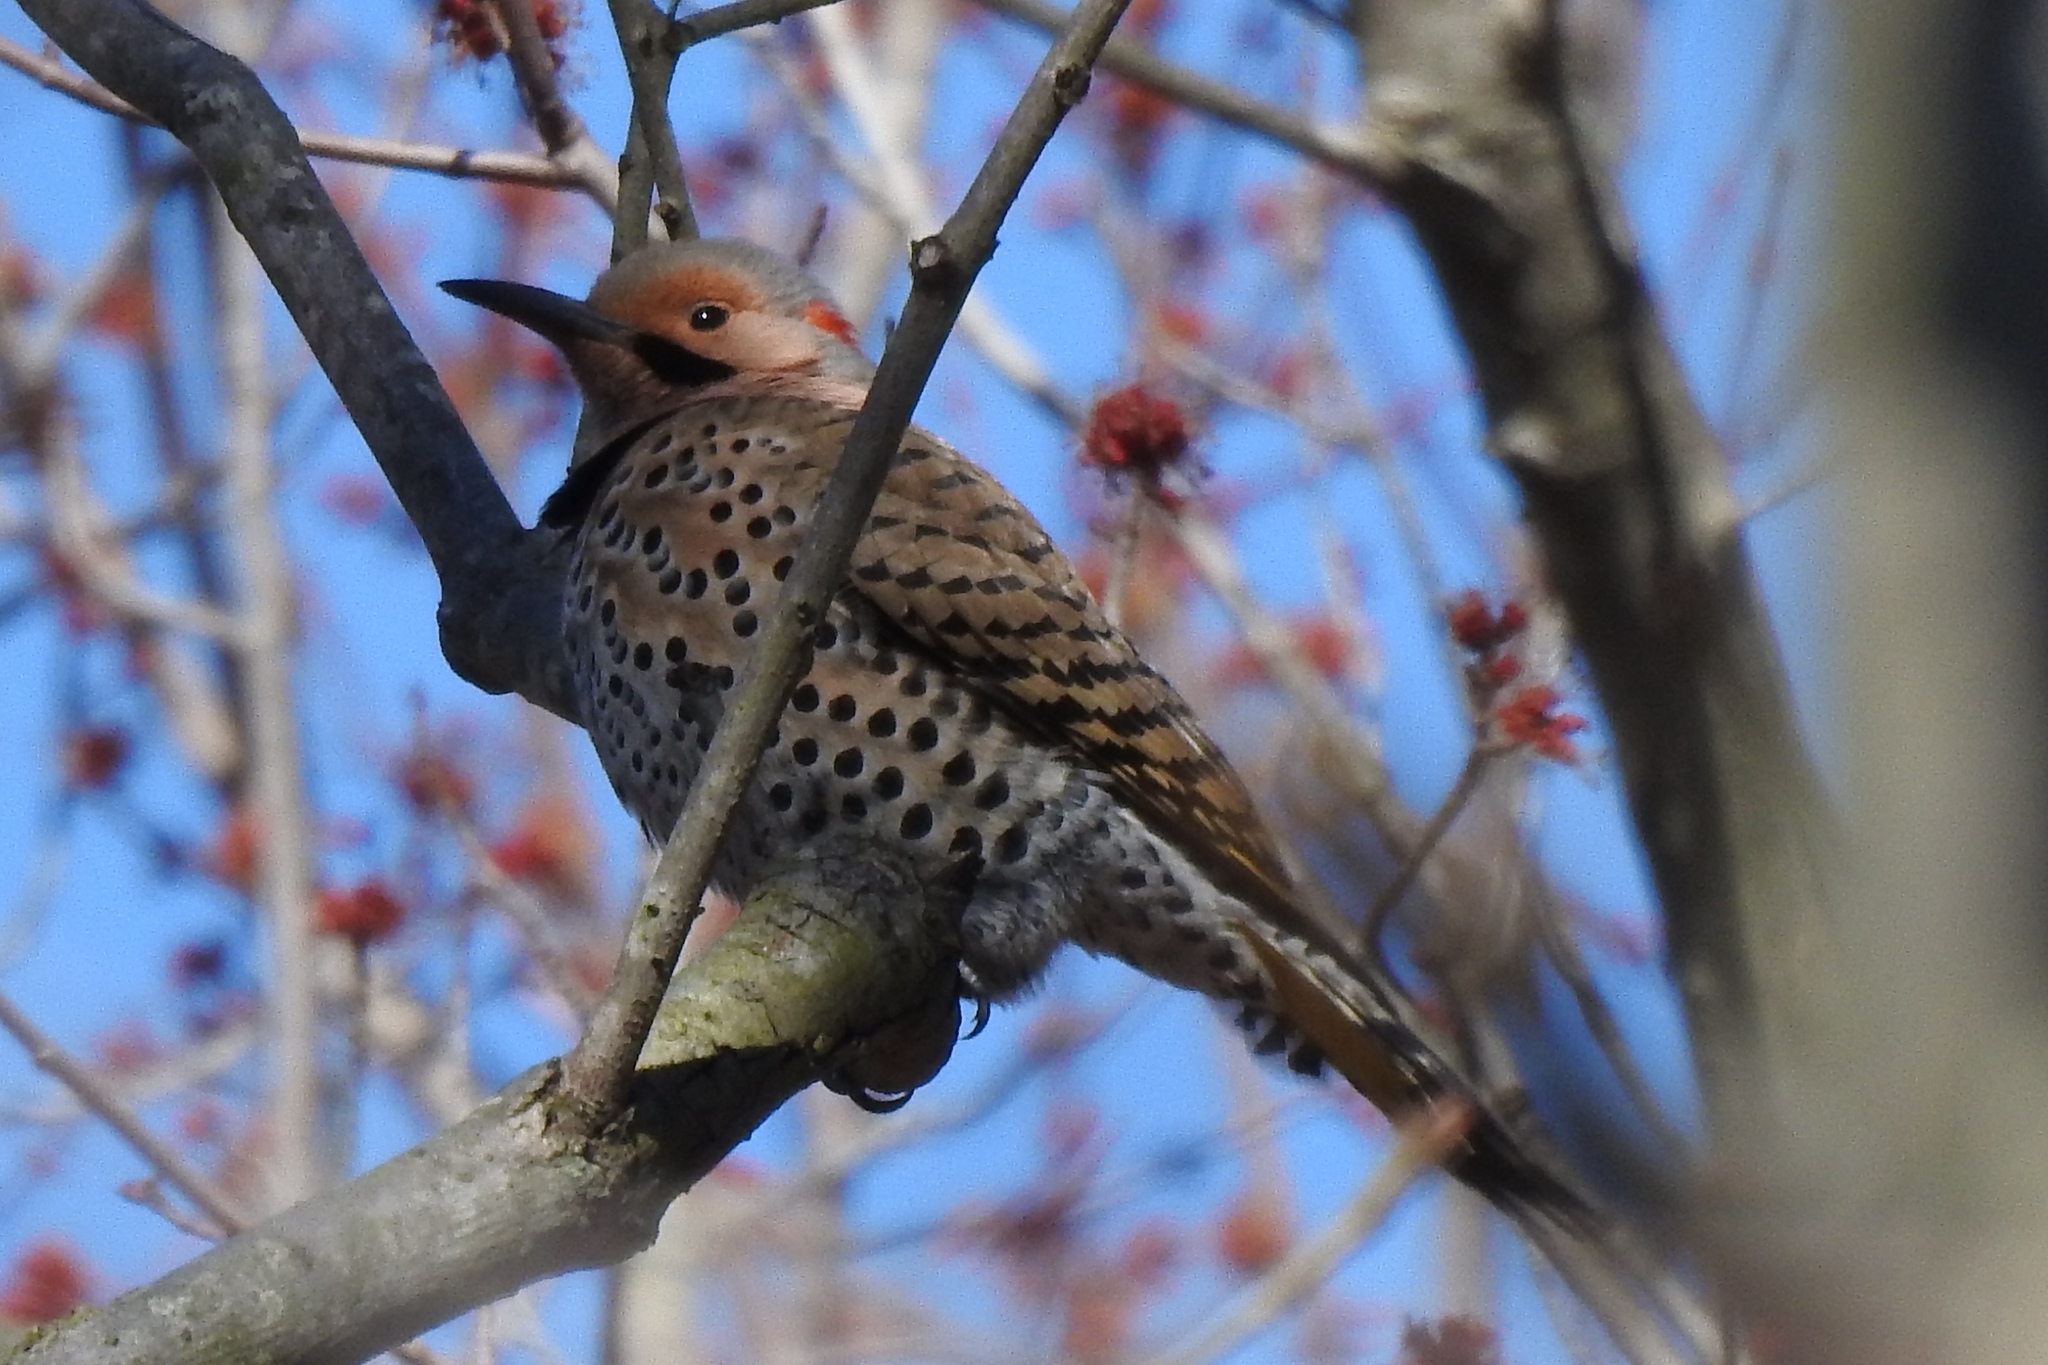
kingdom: Animalia
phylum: Chordata
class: Aves
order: Piciformes
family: Picidae
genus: Colaptes
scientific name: Colaptes auratus
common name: Northern flicker
